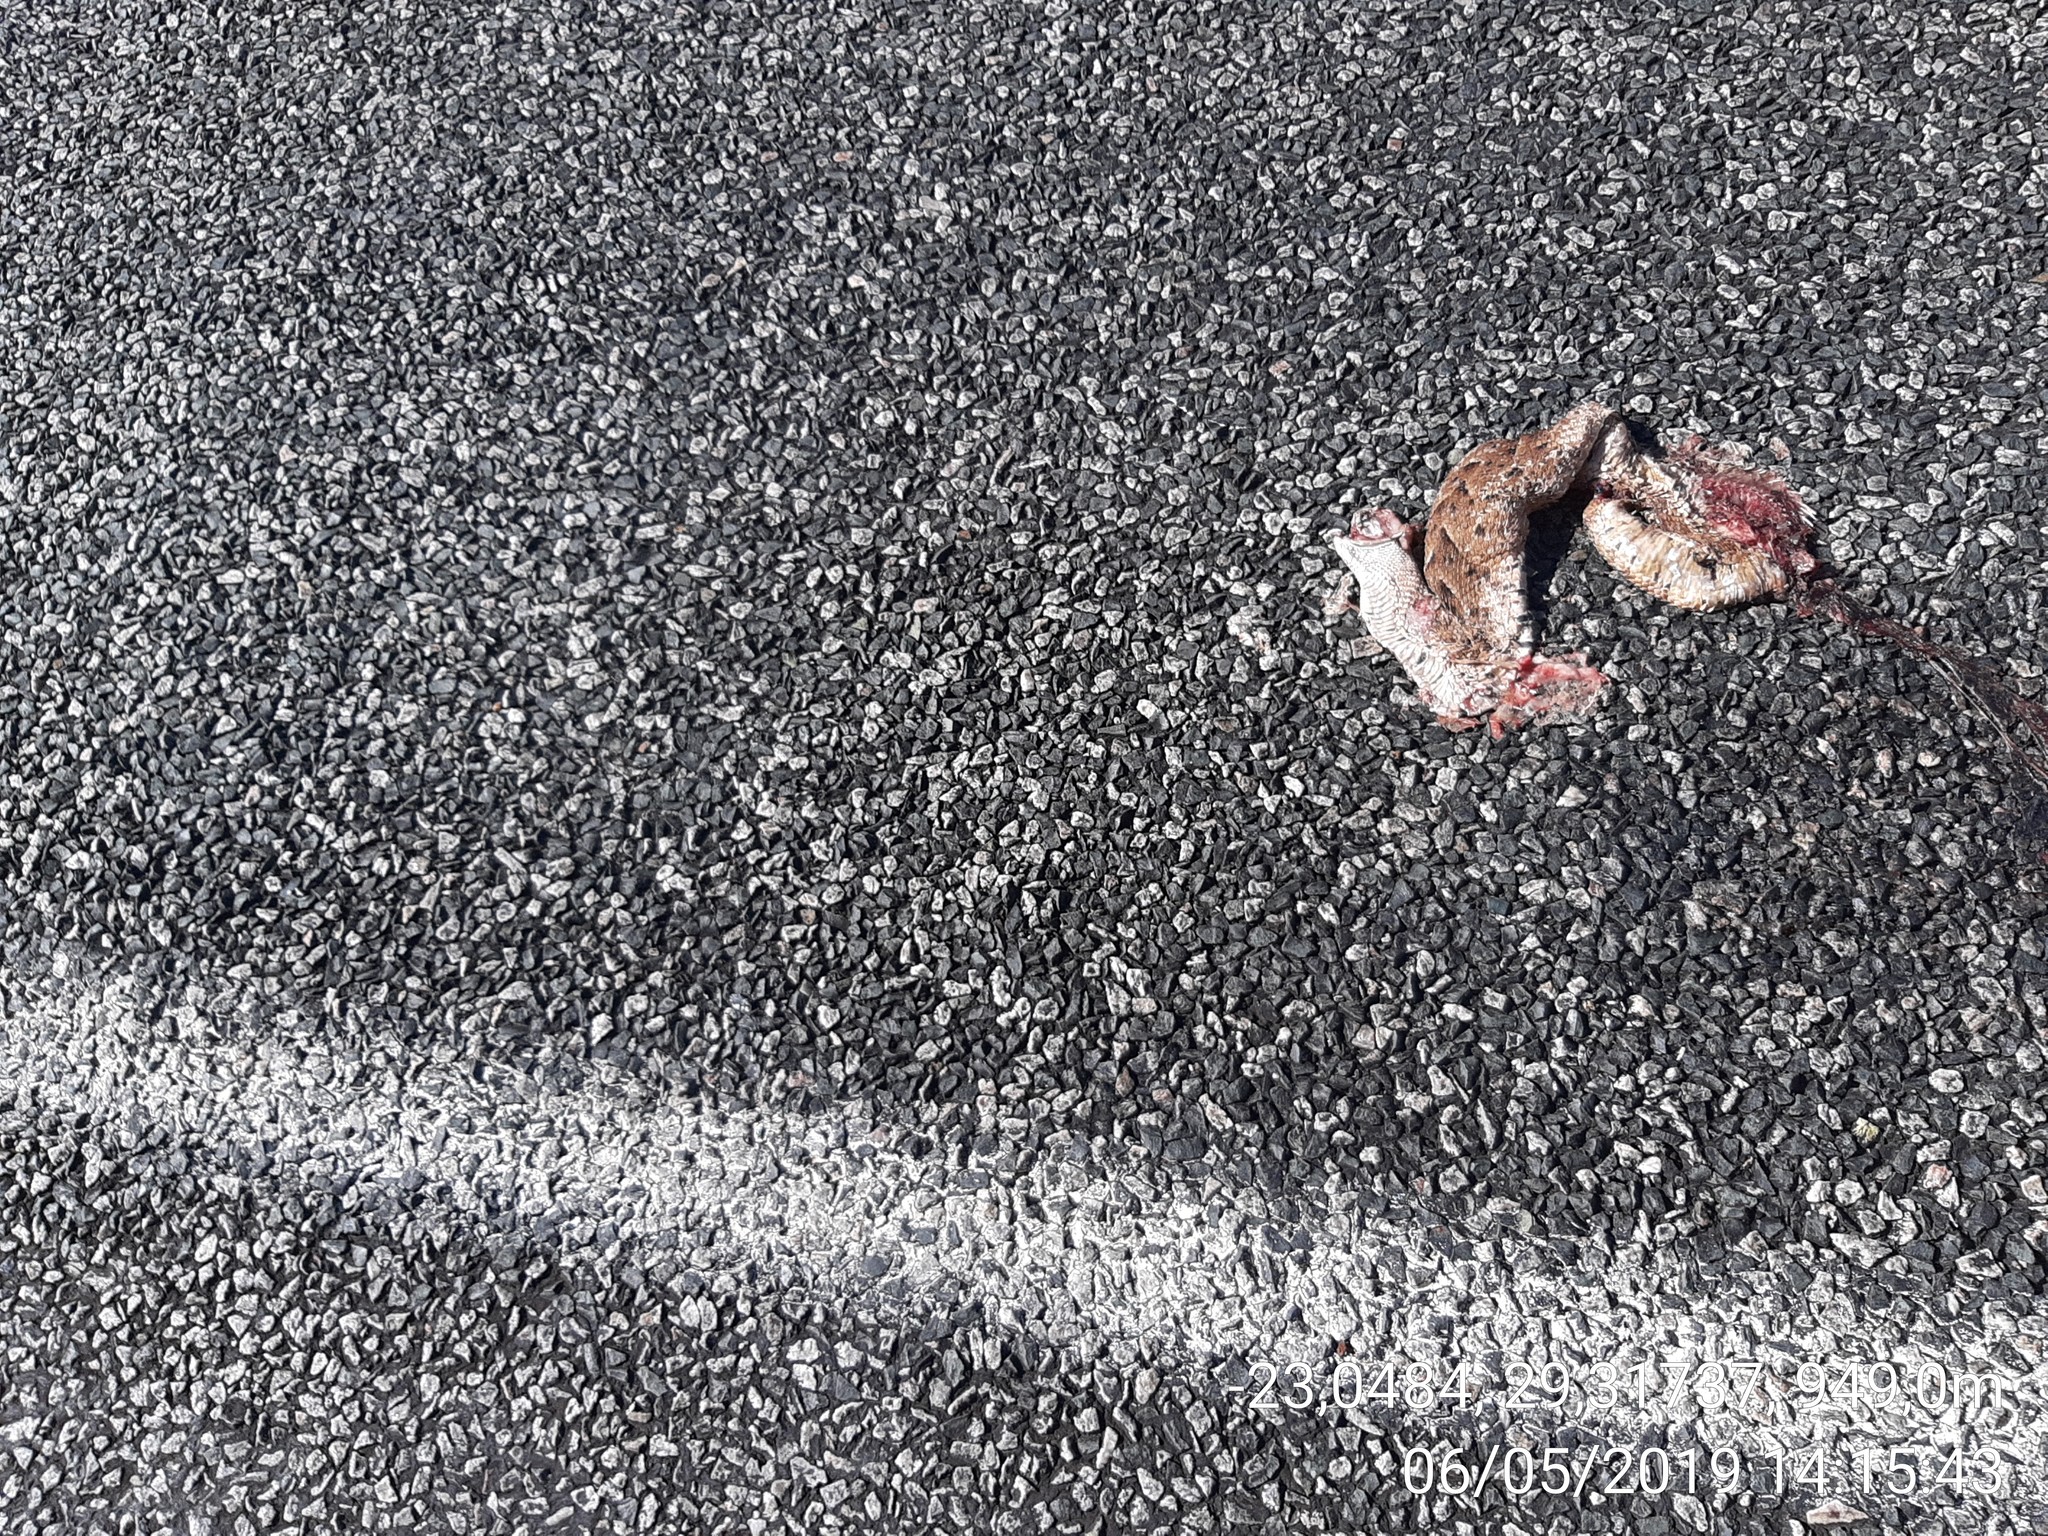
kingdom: Animalia
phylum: Chordata
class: Squamata
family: Viperidae
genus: Bitis
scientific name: Bitis arietans
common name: Puff adder
